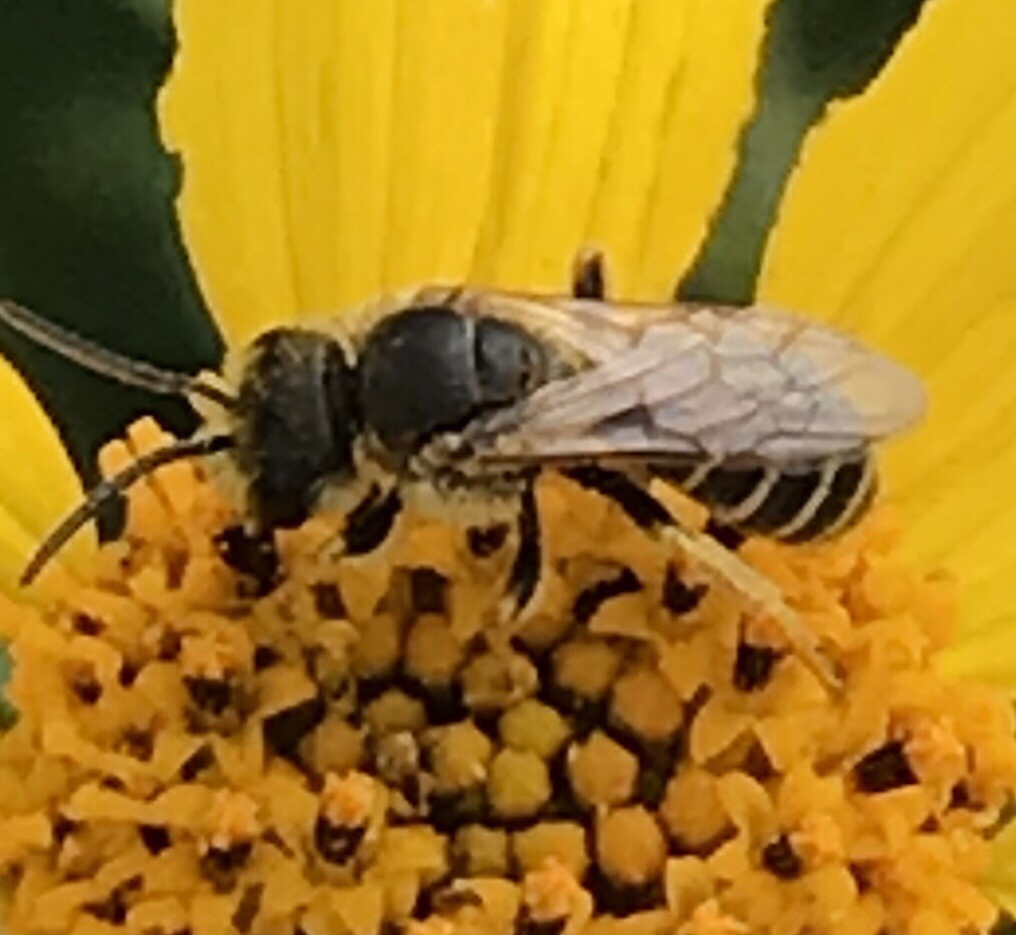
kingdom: Animalia
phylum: Arthropoda
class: Insecta
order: Hymenoptera
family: Halictidae
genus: Halictus
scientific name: Halictus ligatus
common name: Ligated furrow bee
